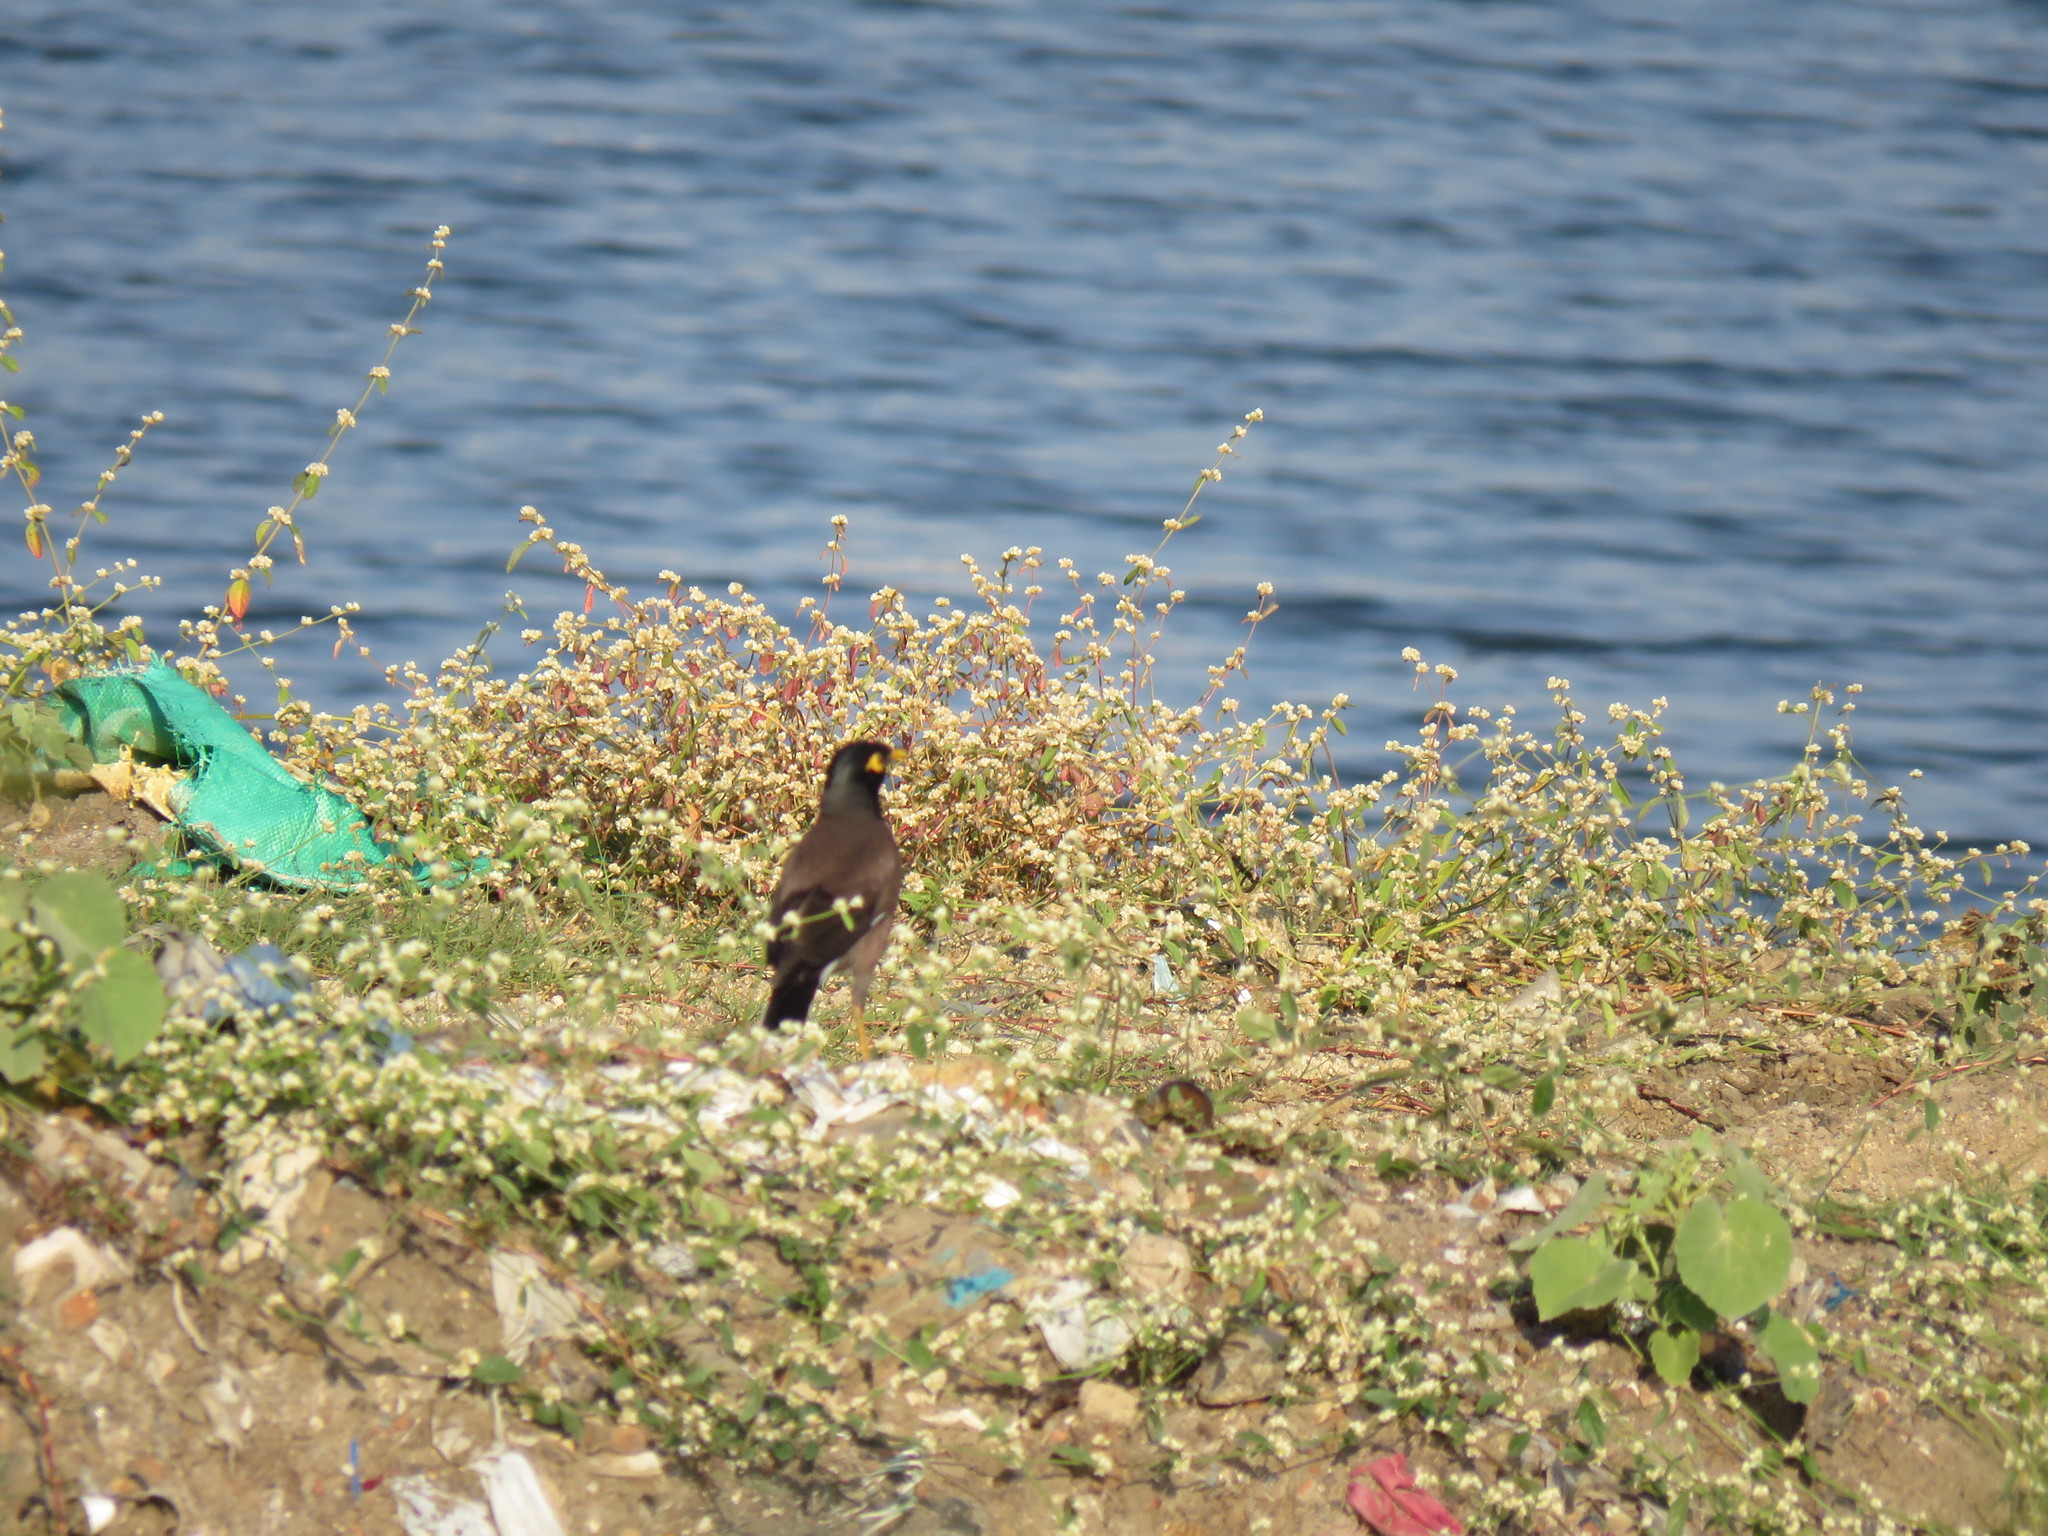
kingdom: Animalia
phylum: Chordata
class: Aves
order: Passeriformes
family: Sturnidae
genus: Acridotheres
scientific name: Acridotheres tristis
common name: Common myna
